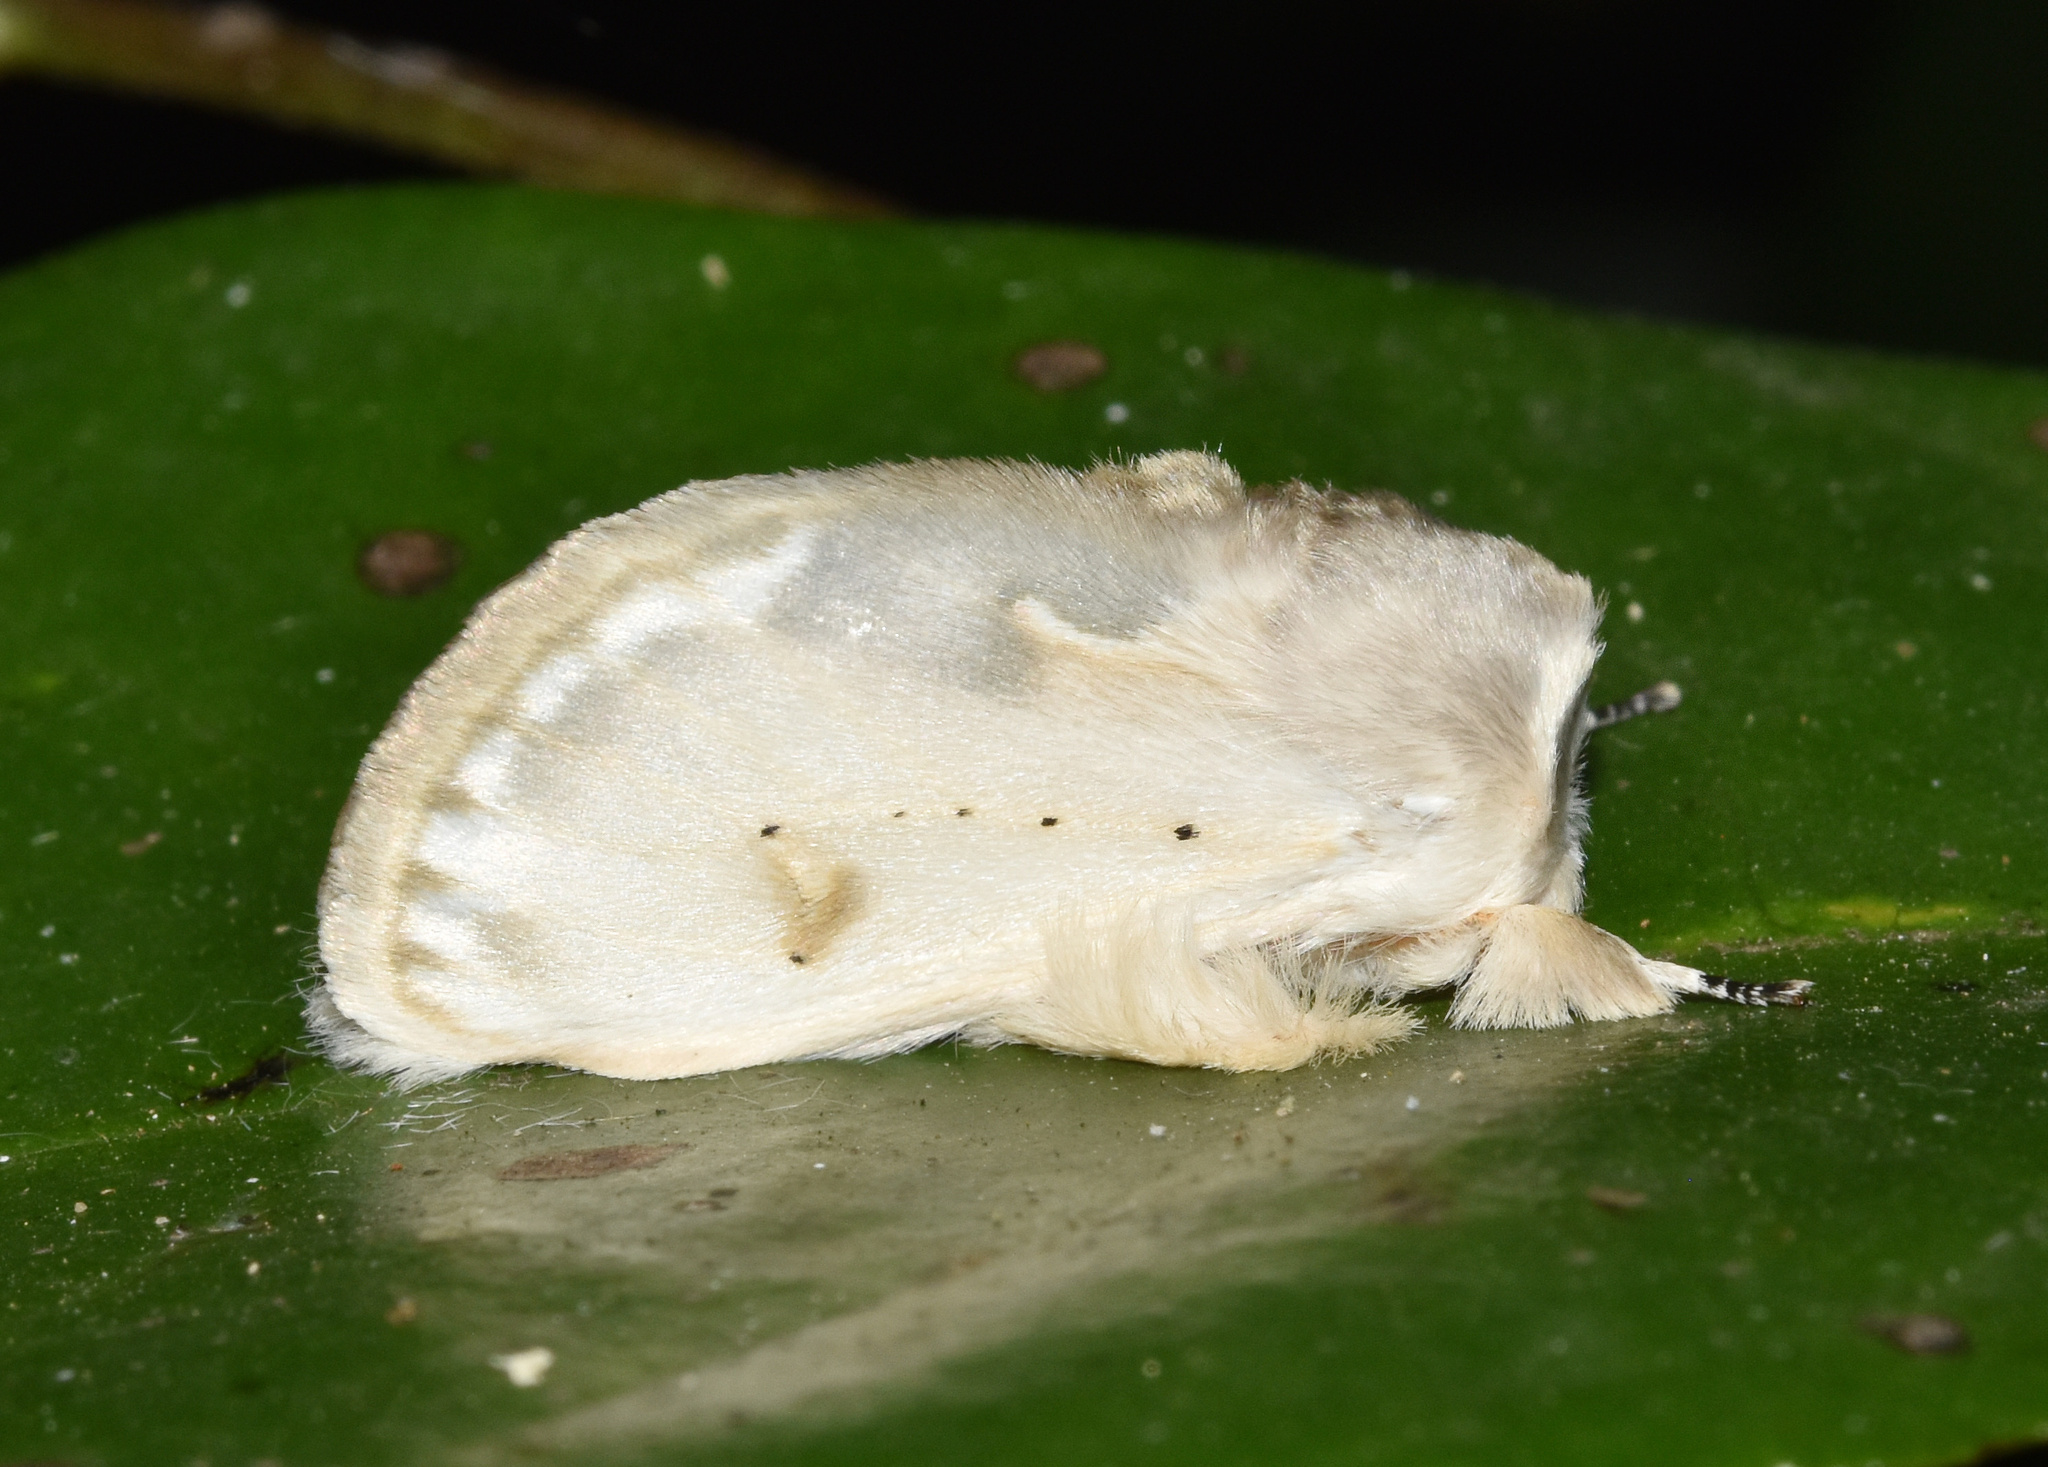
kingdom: Animalia
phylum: Arthropoda
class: Insecta
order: Lepidoptera
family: Erebidae
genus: Naroma
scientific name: Naroma varipes
